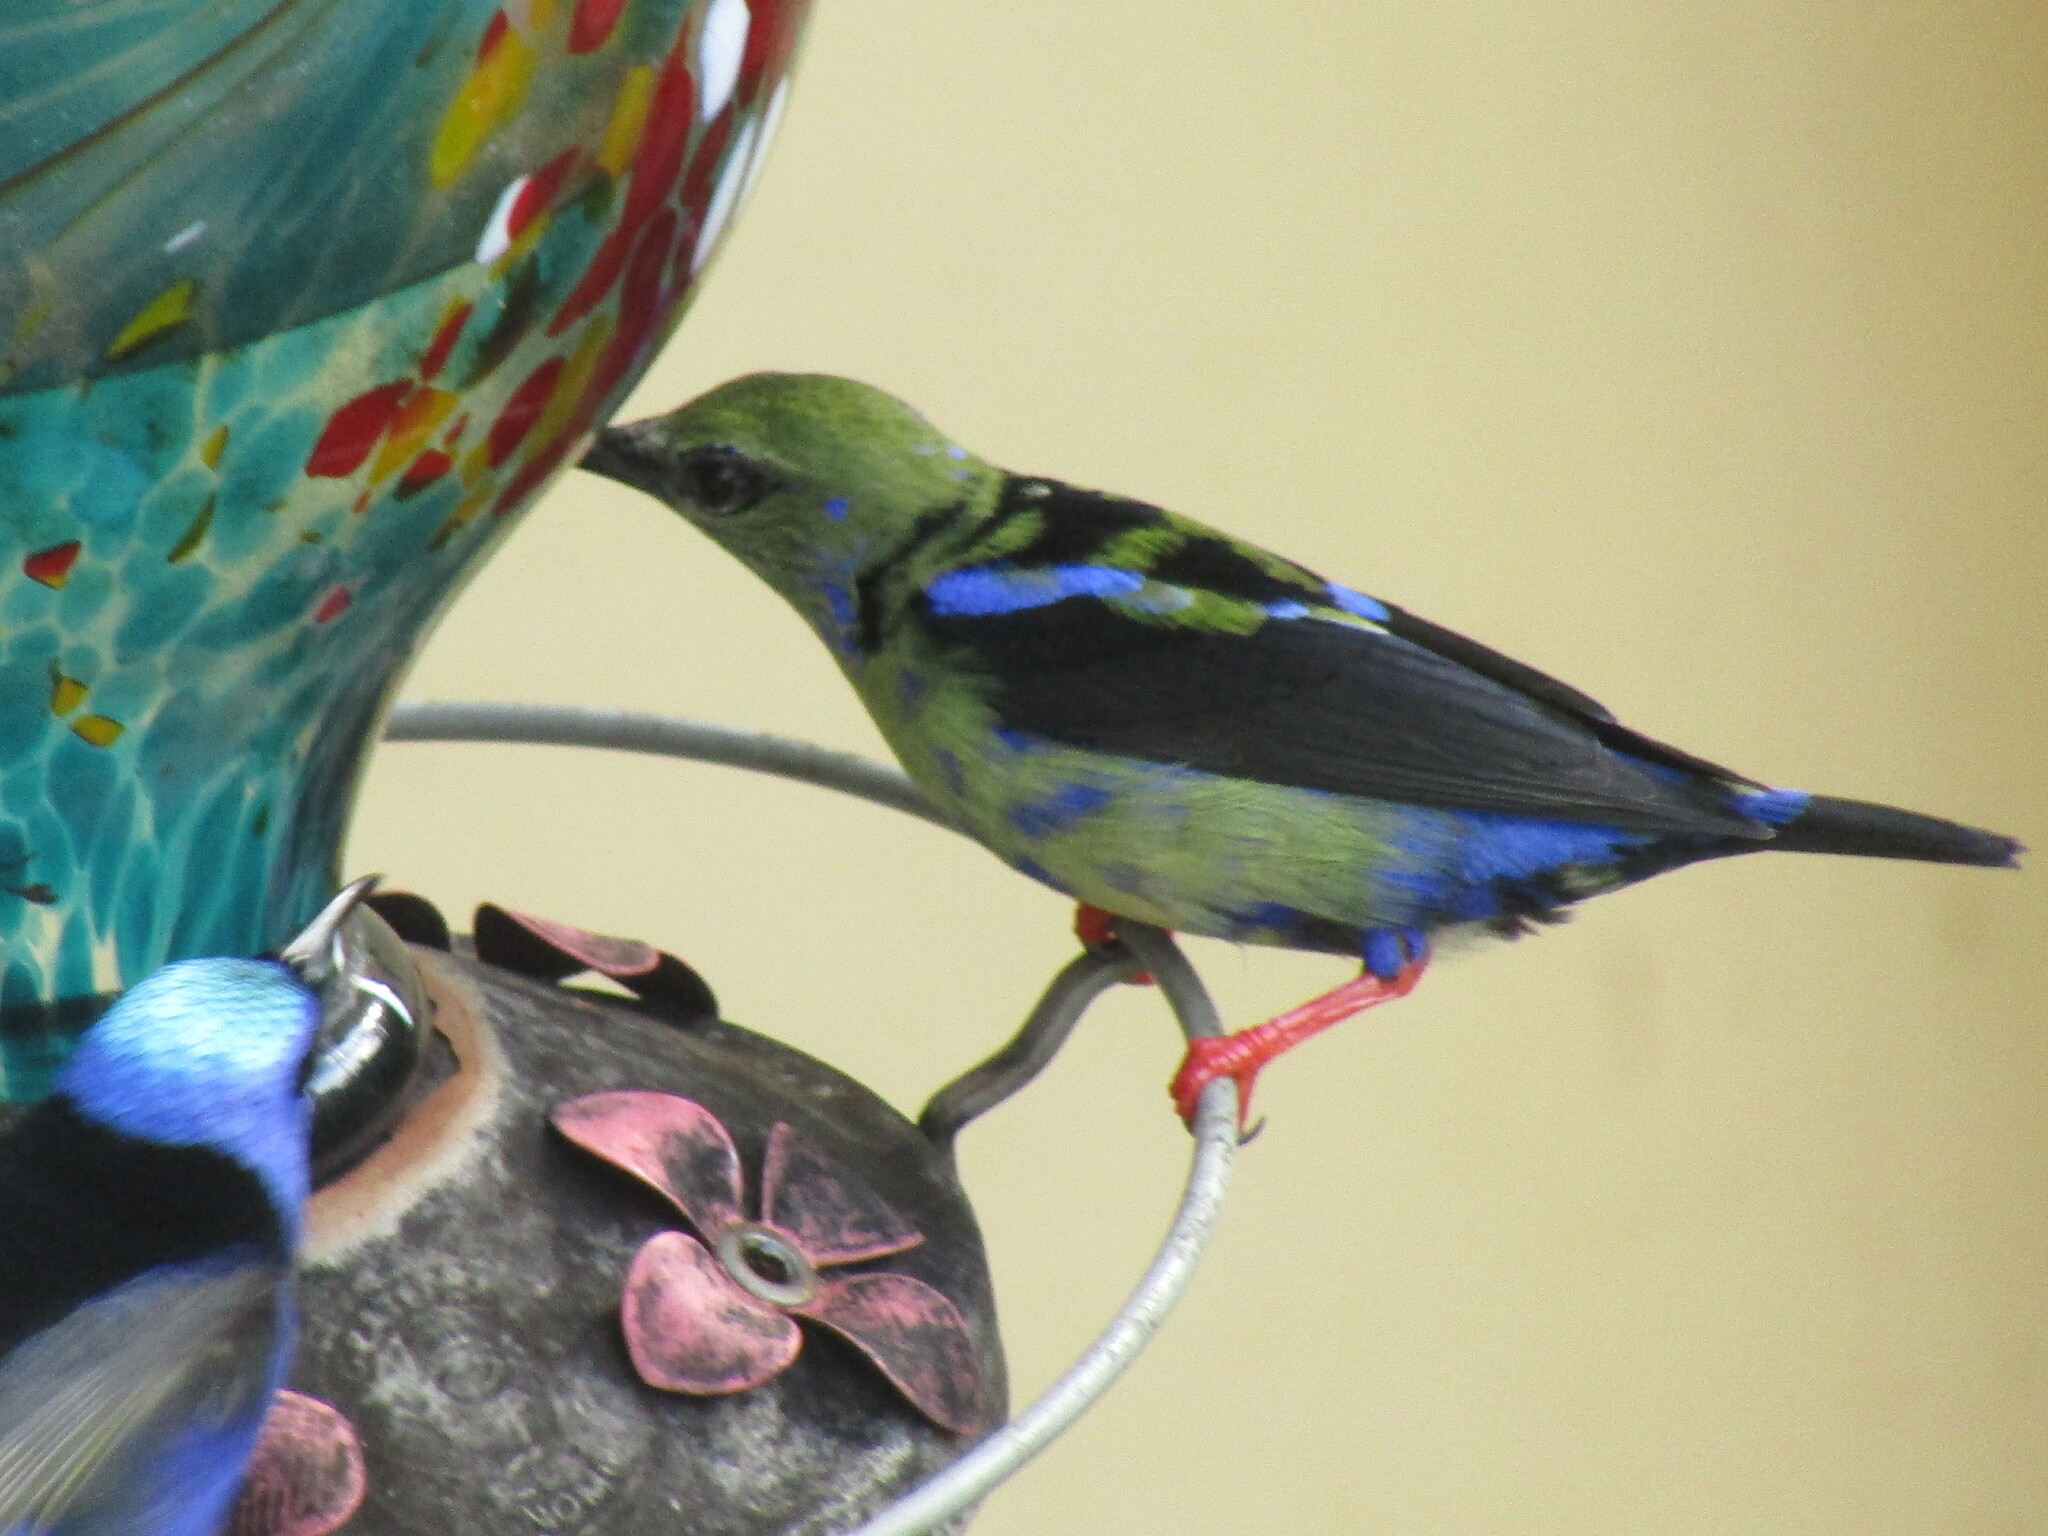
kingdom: Animalia
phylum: Chordata
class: Aves
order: Passeriformes
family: Thraupidae
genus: Cyanerpes
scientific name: Cyanerpes cyaneus
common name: Red-legged honeycreeper
